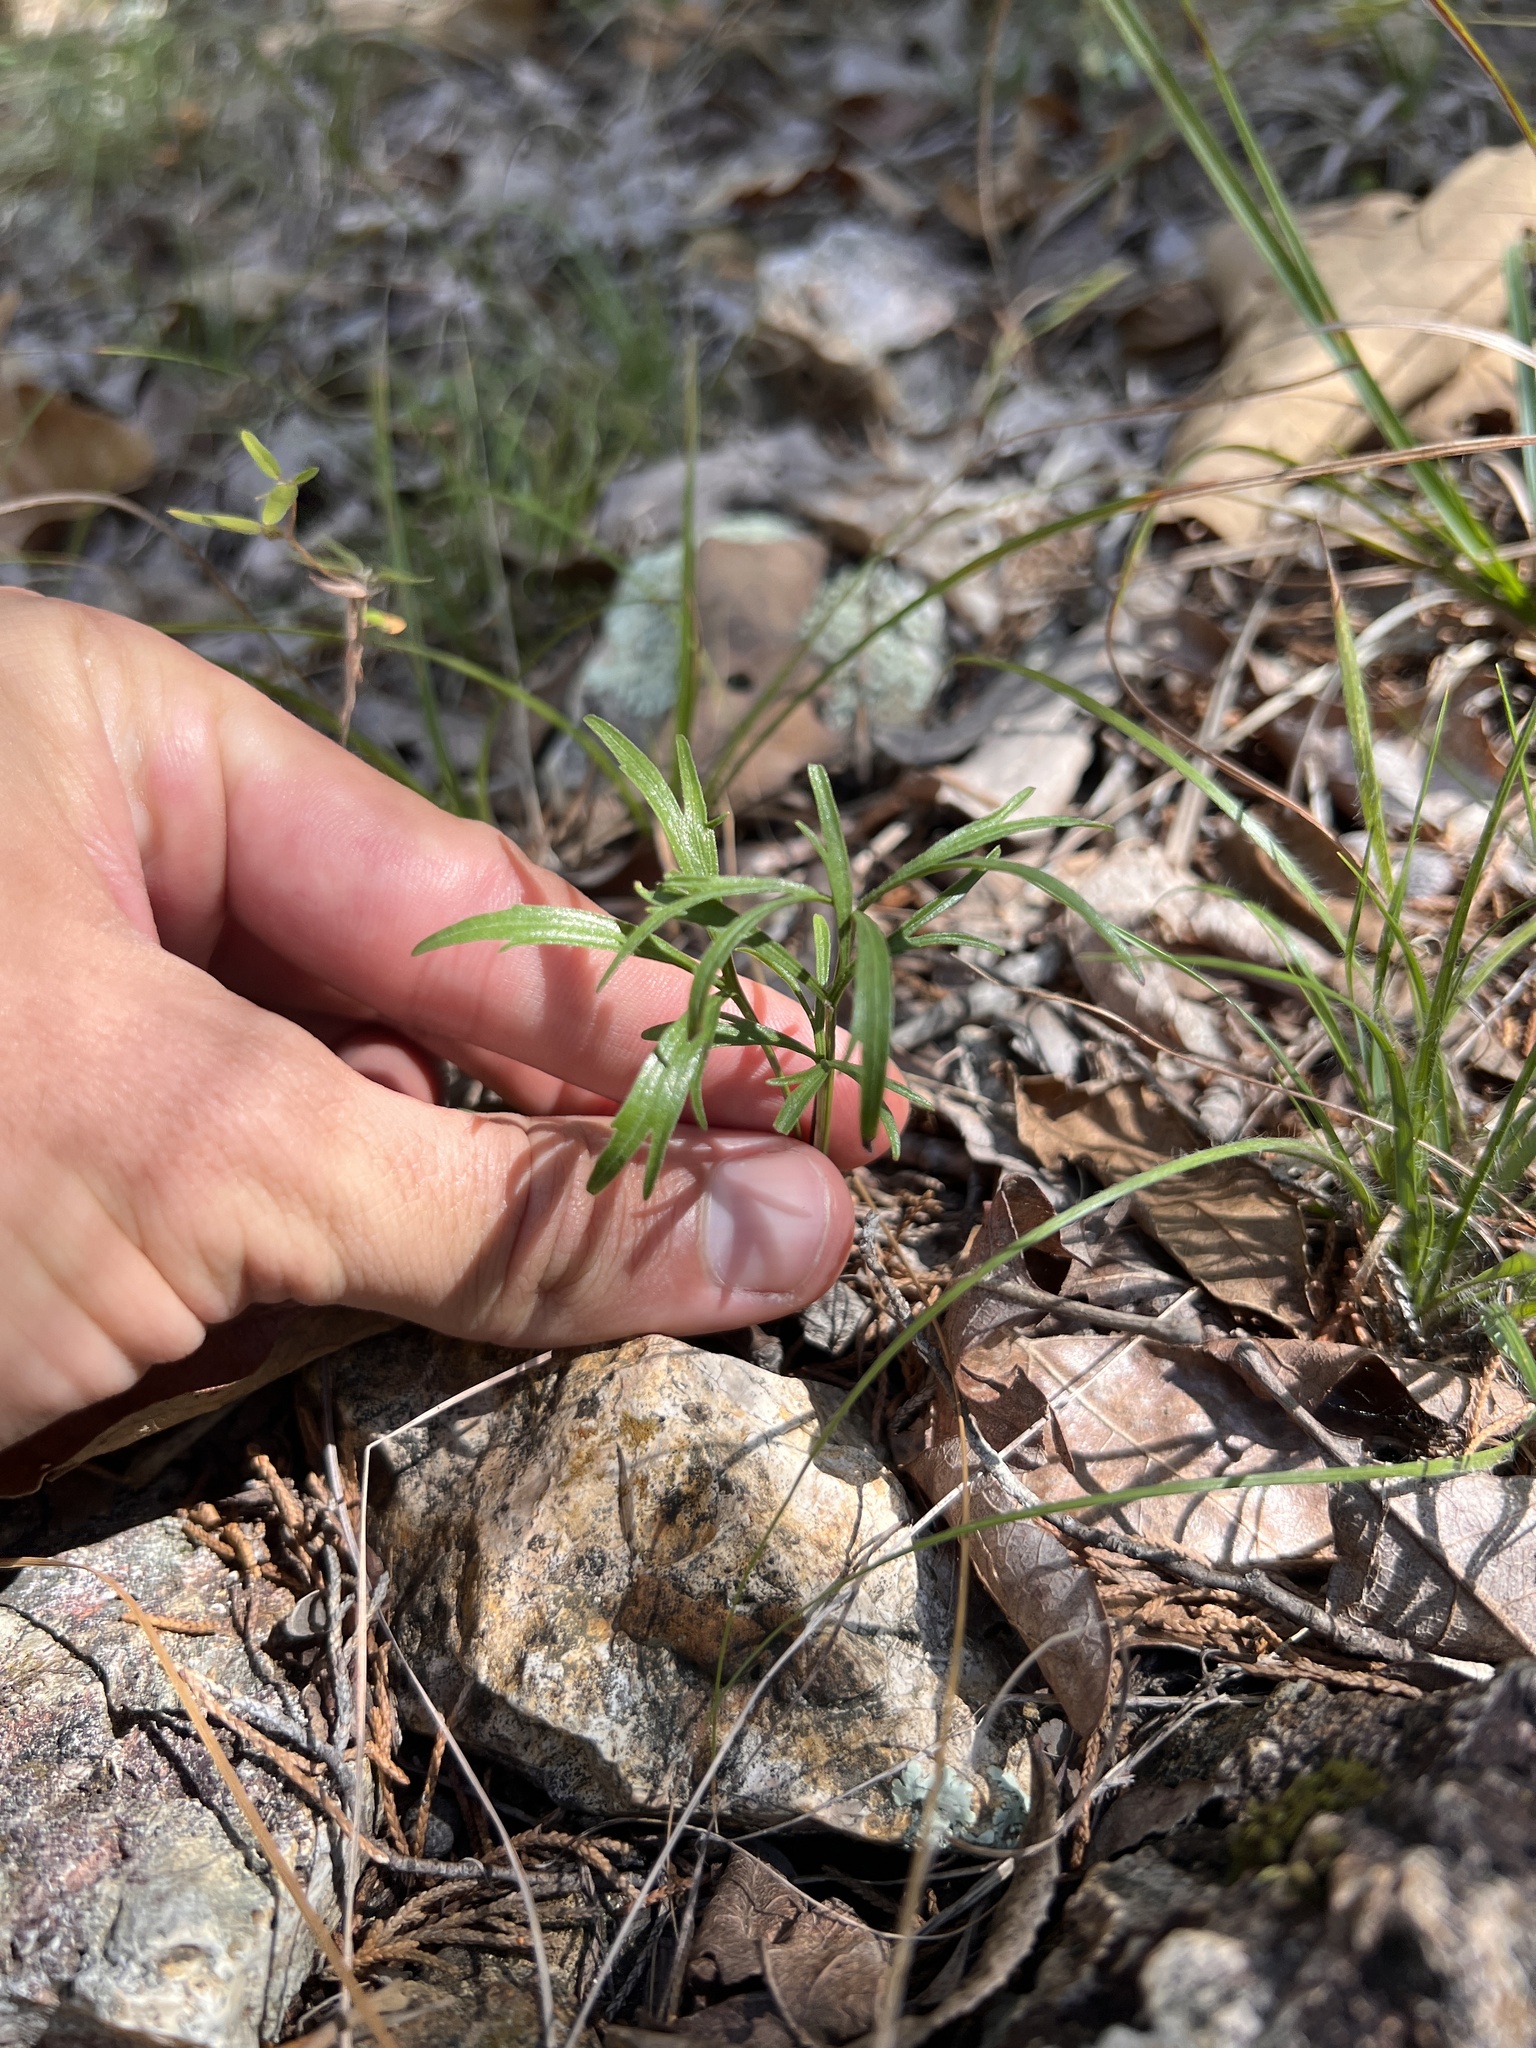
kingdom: Plantae
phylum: Tracheophyta
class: Magnoliopsida
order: Malpighiales
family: Violaceae
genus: Viola
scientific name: Viola pedata
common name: Pansy violet
